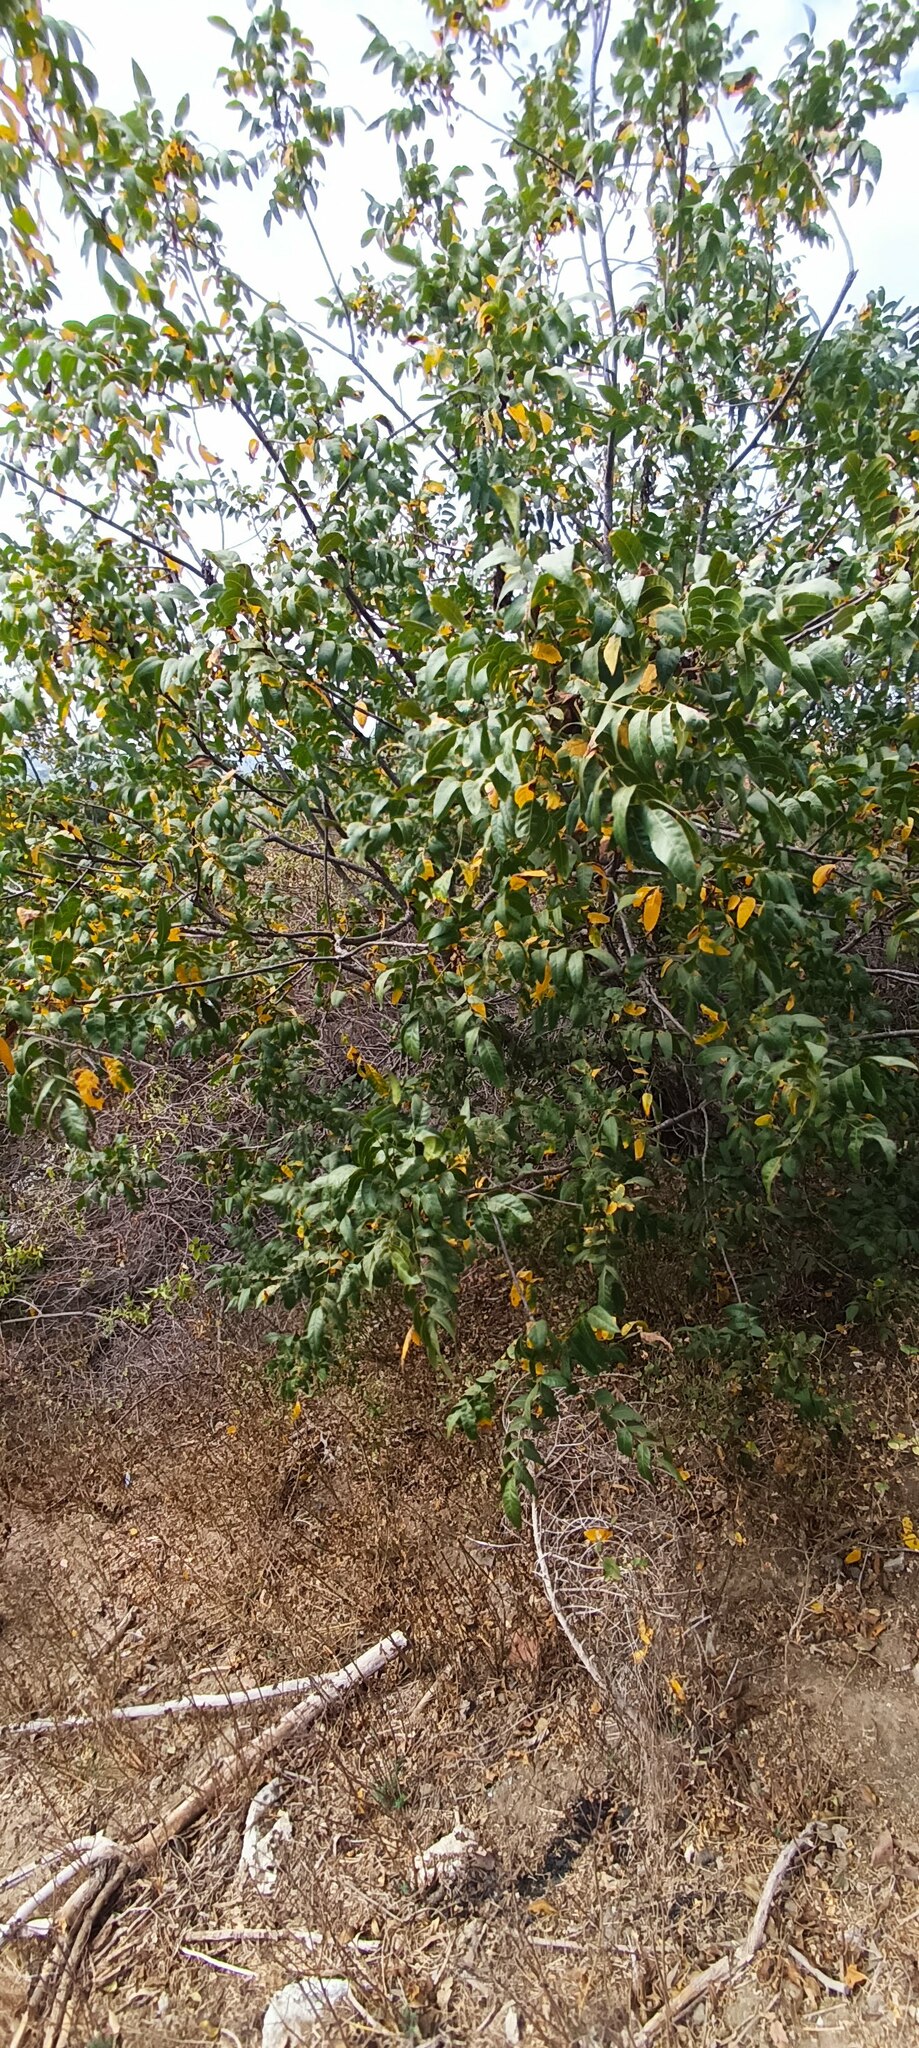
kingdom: Plantae
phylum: Tracheophyta
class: Magnoliopsida
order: Fagales
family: Juglandaceae
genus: Juglans
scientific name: Juglans californica
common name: Southern california black walnut
